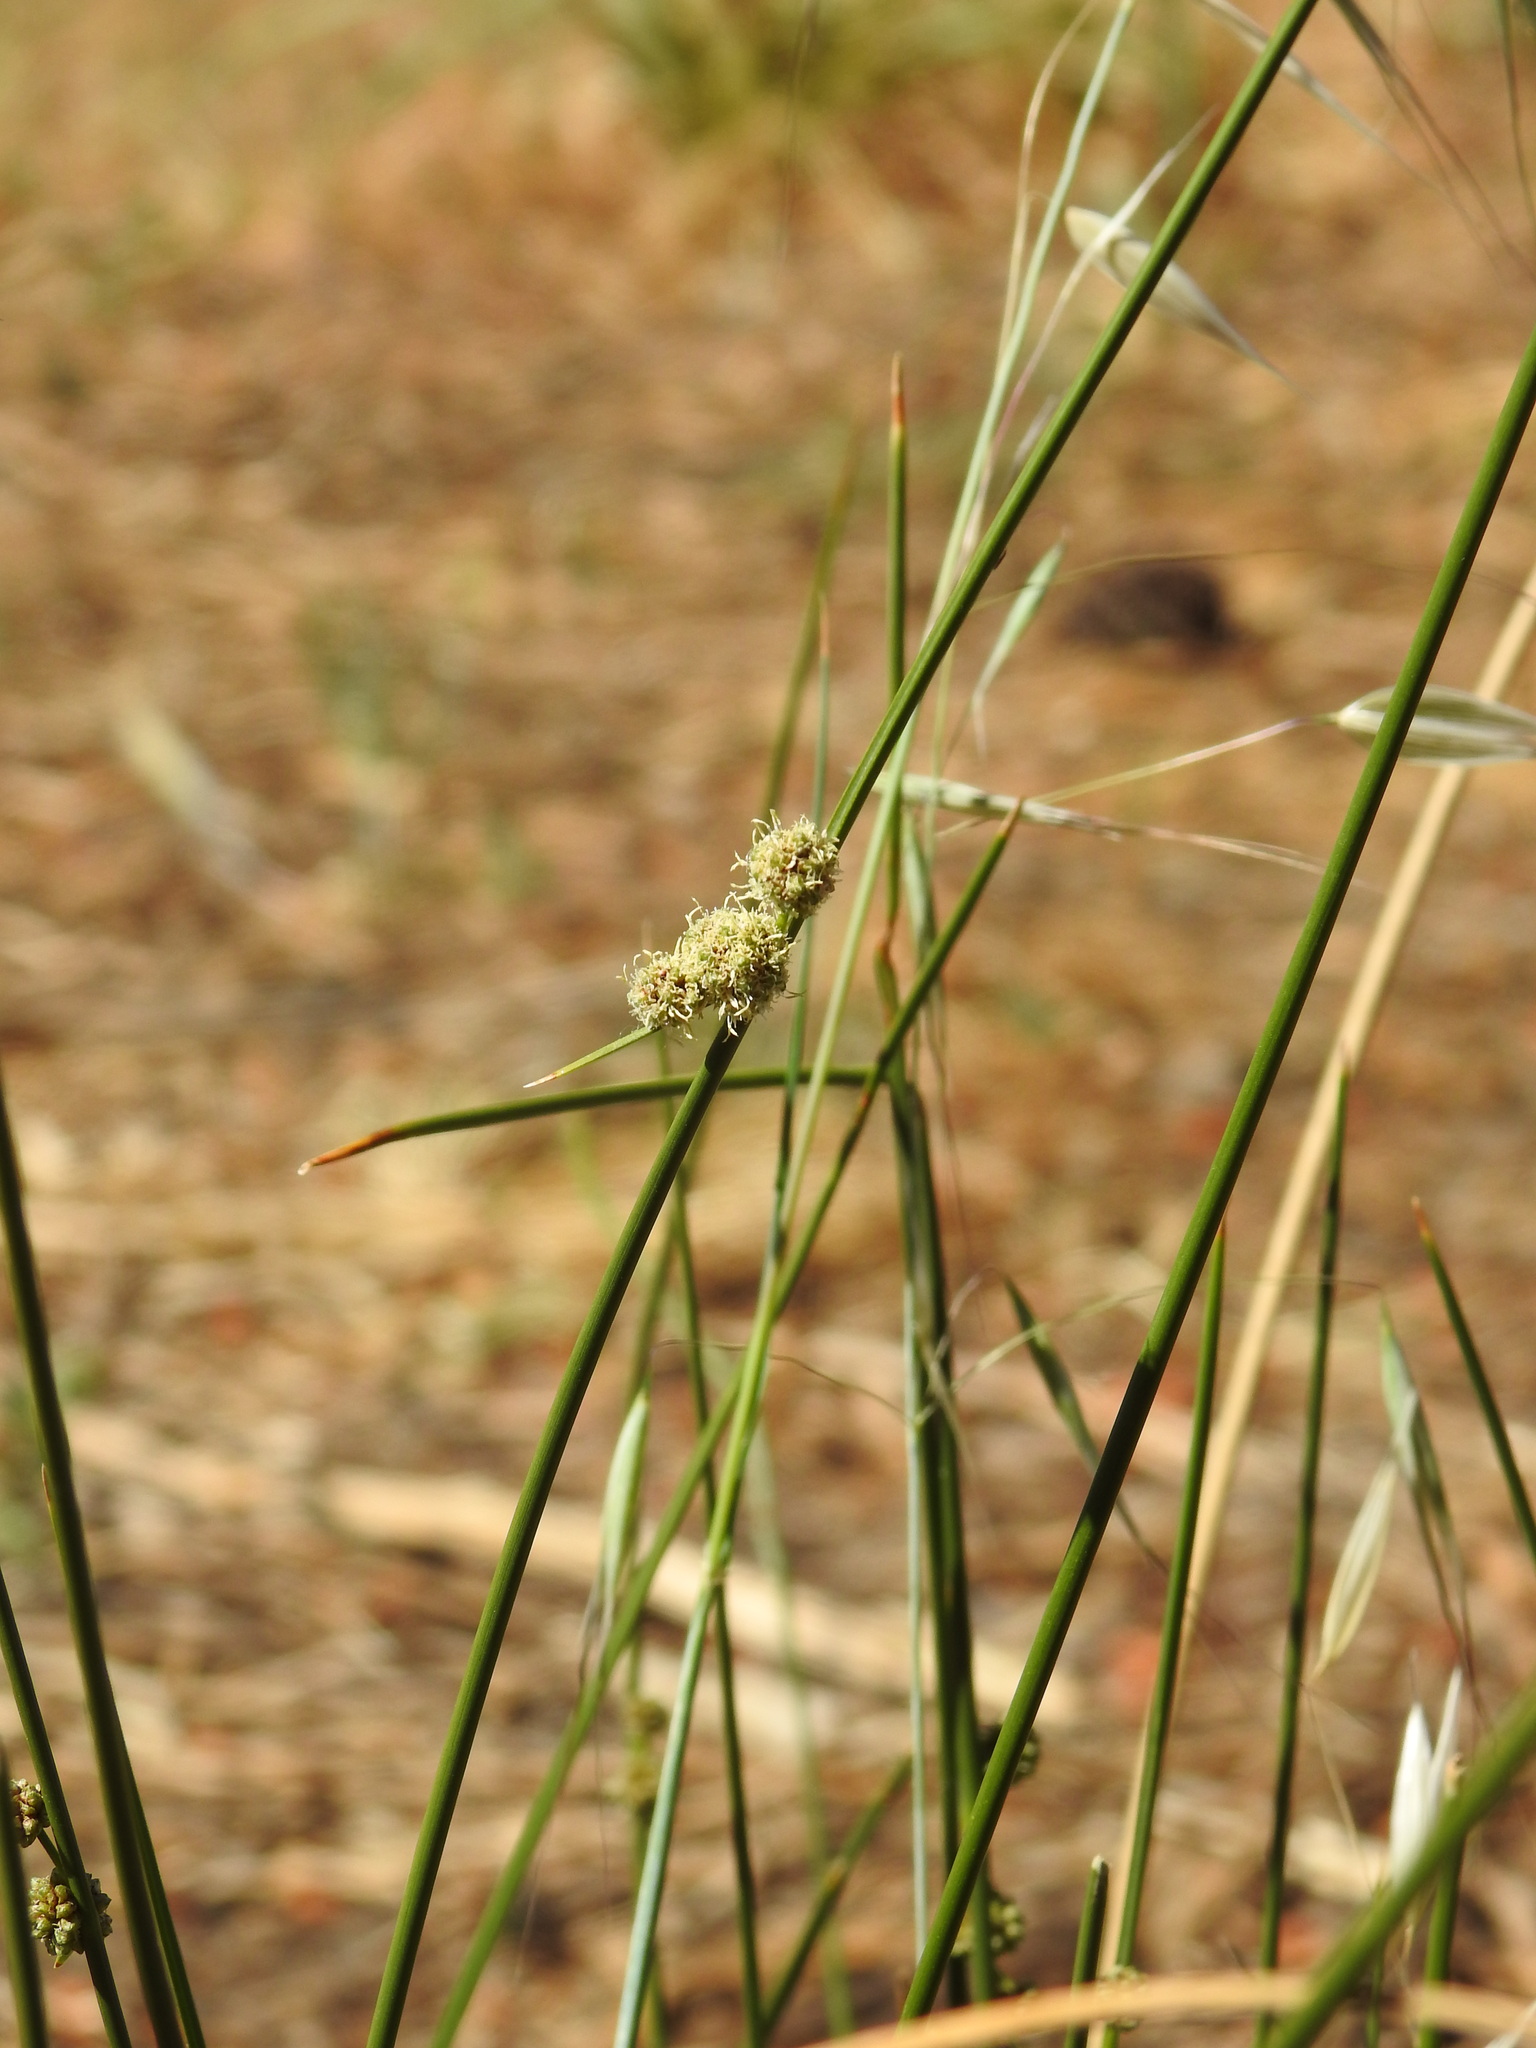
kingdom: Plantae
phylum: Tracheophyta
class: Liliopsida
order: Poales
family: Cyperaceae
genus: Scirpoides
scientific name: Scirpoides holoschoenus
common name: Round-headed club-rush
